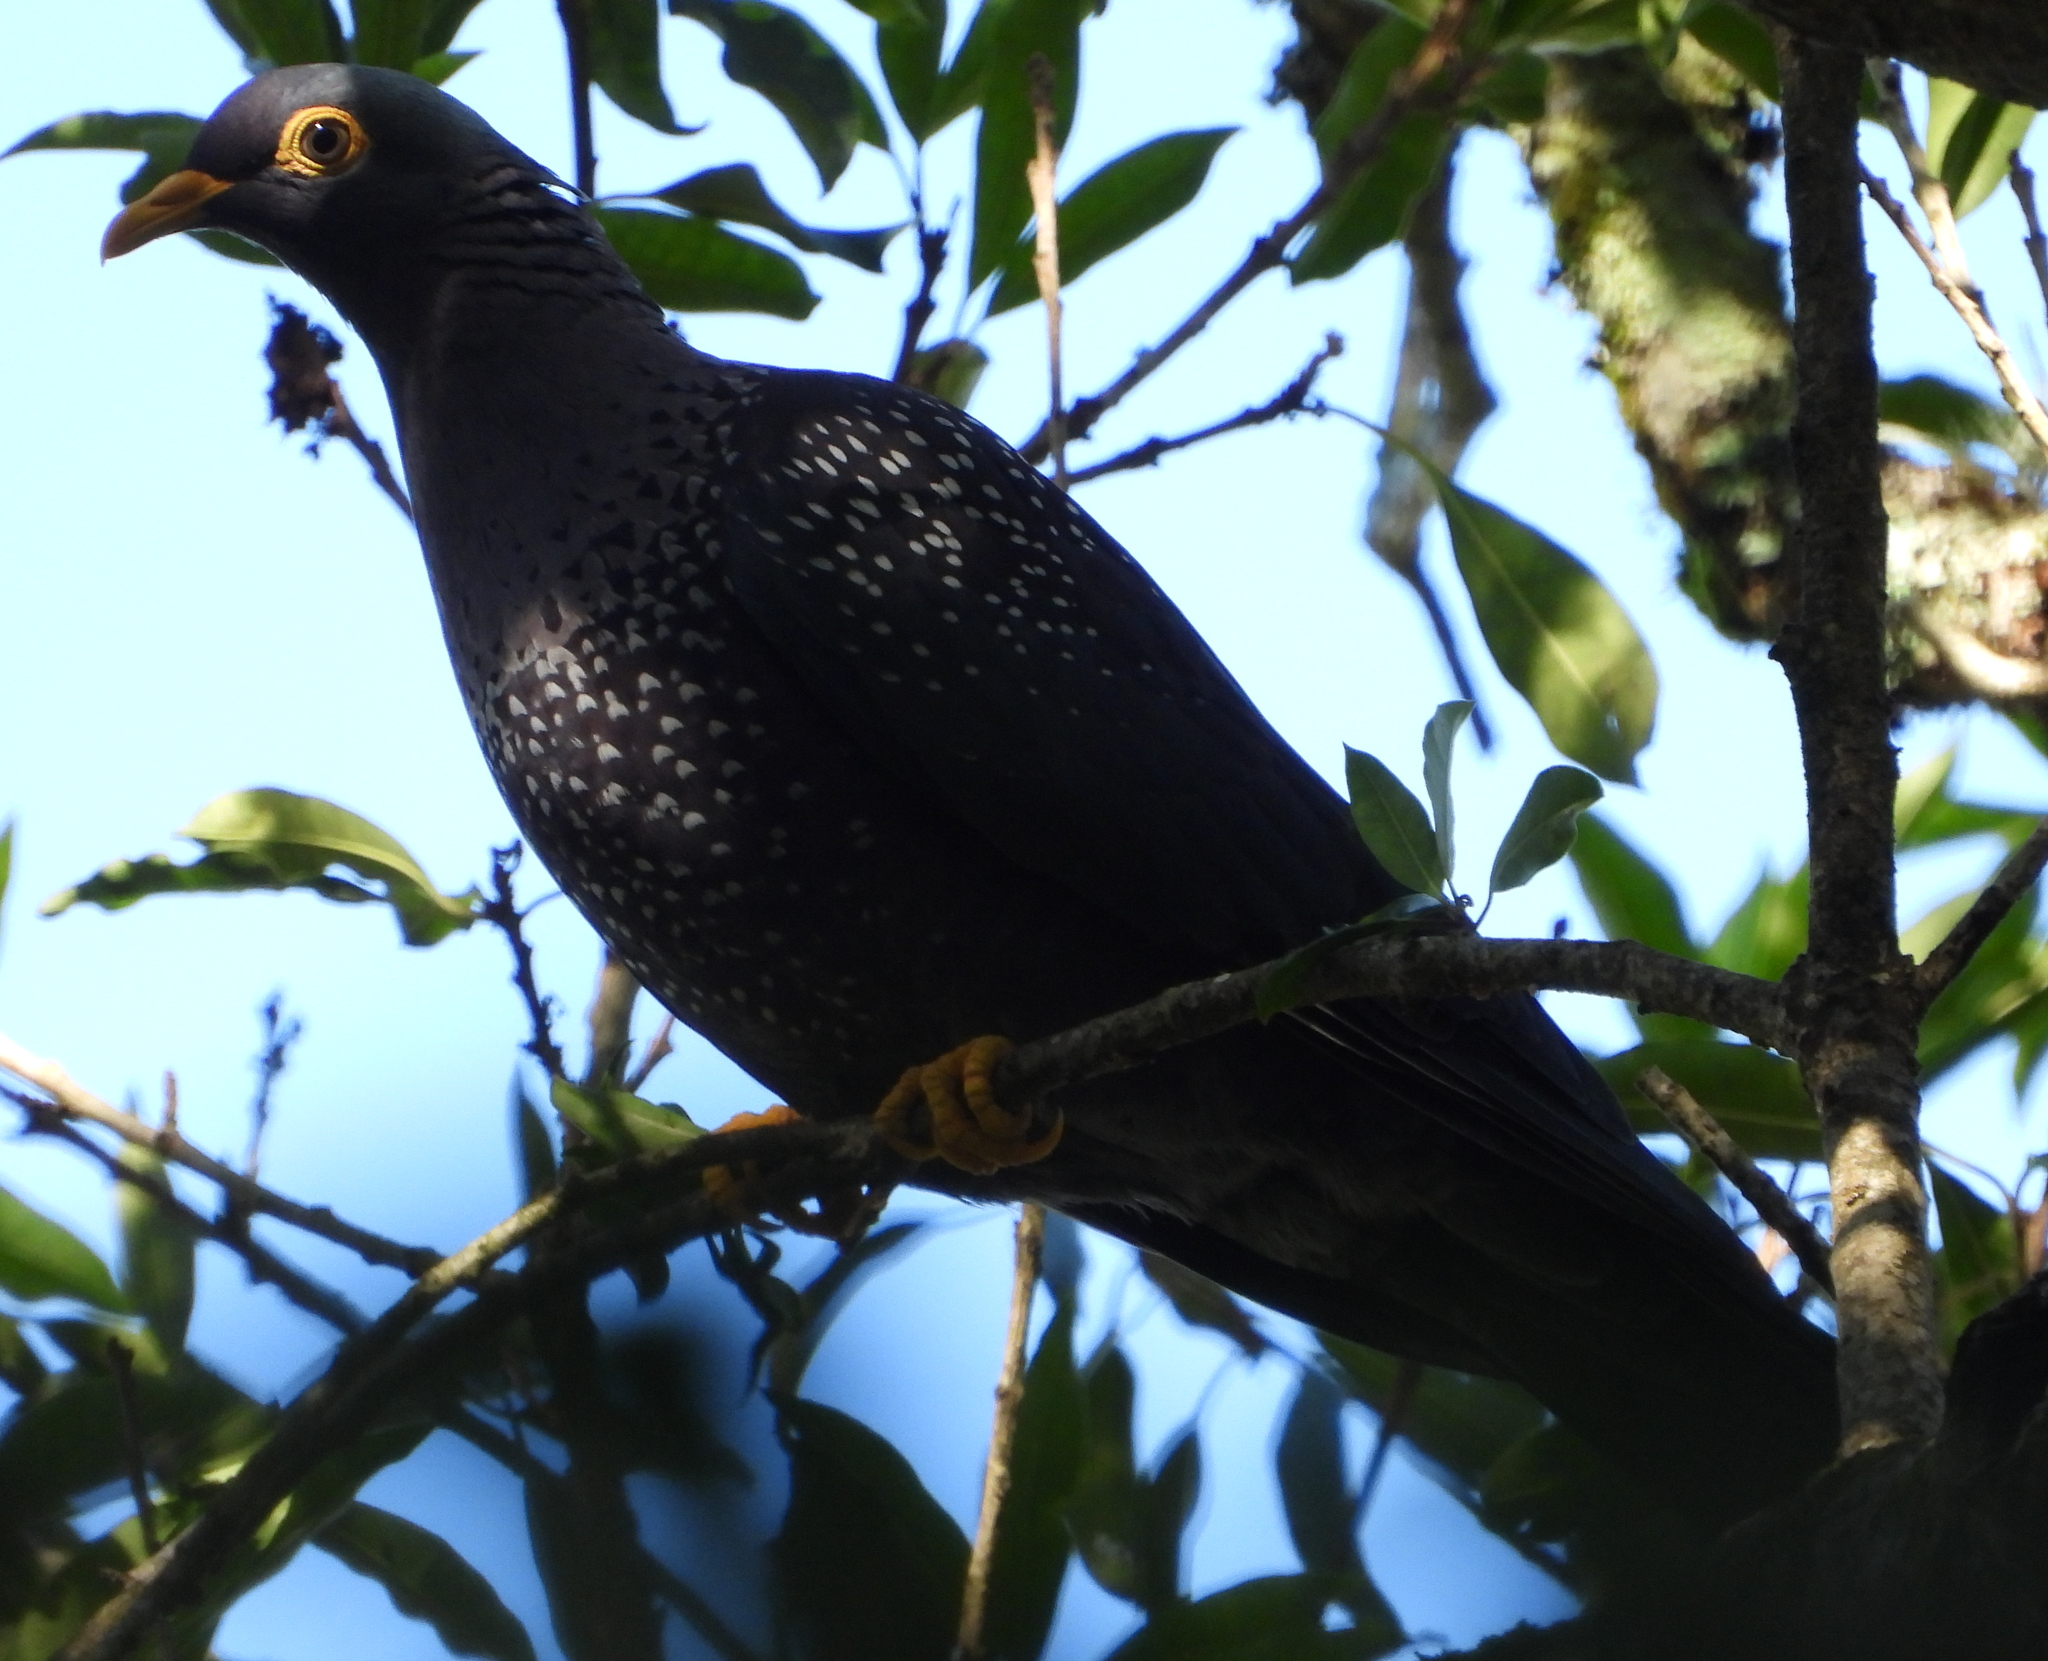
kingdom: Animalia
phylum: Chordata
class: Aves
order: Columbiformes
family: Columbidae
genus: Columba
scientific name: Columba arquatrix
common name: African olive pigeon
